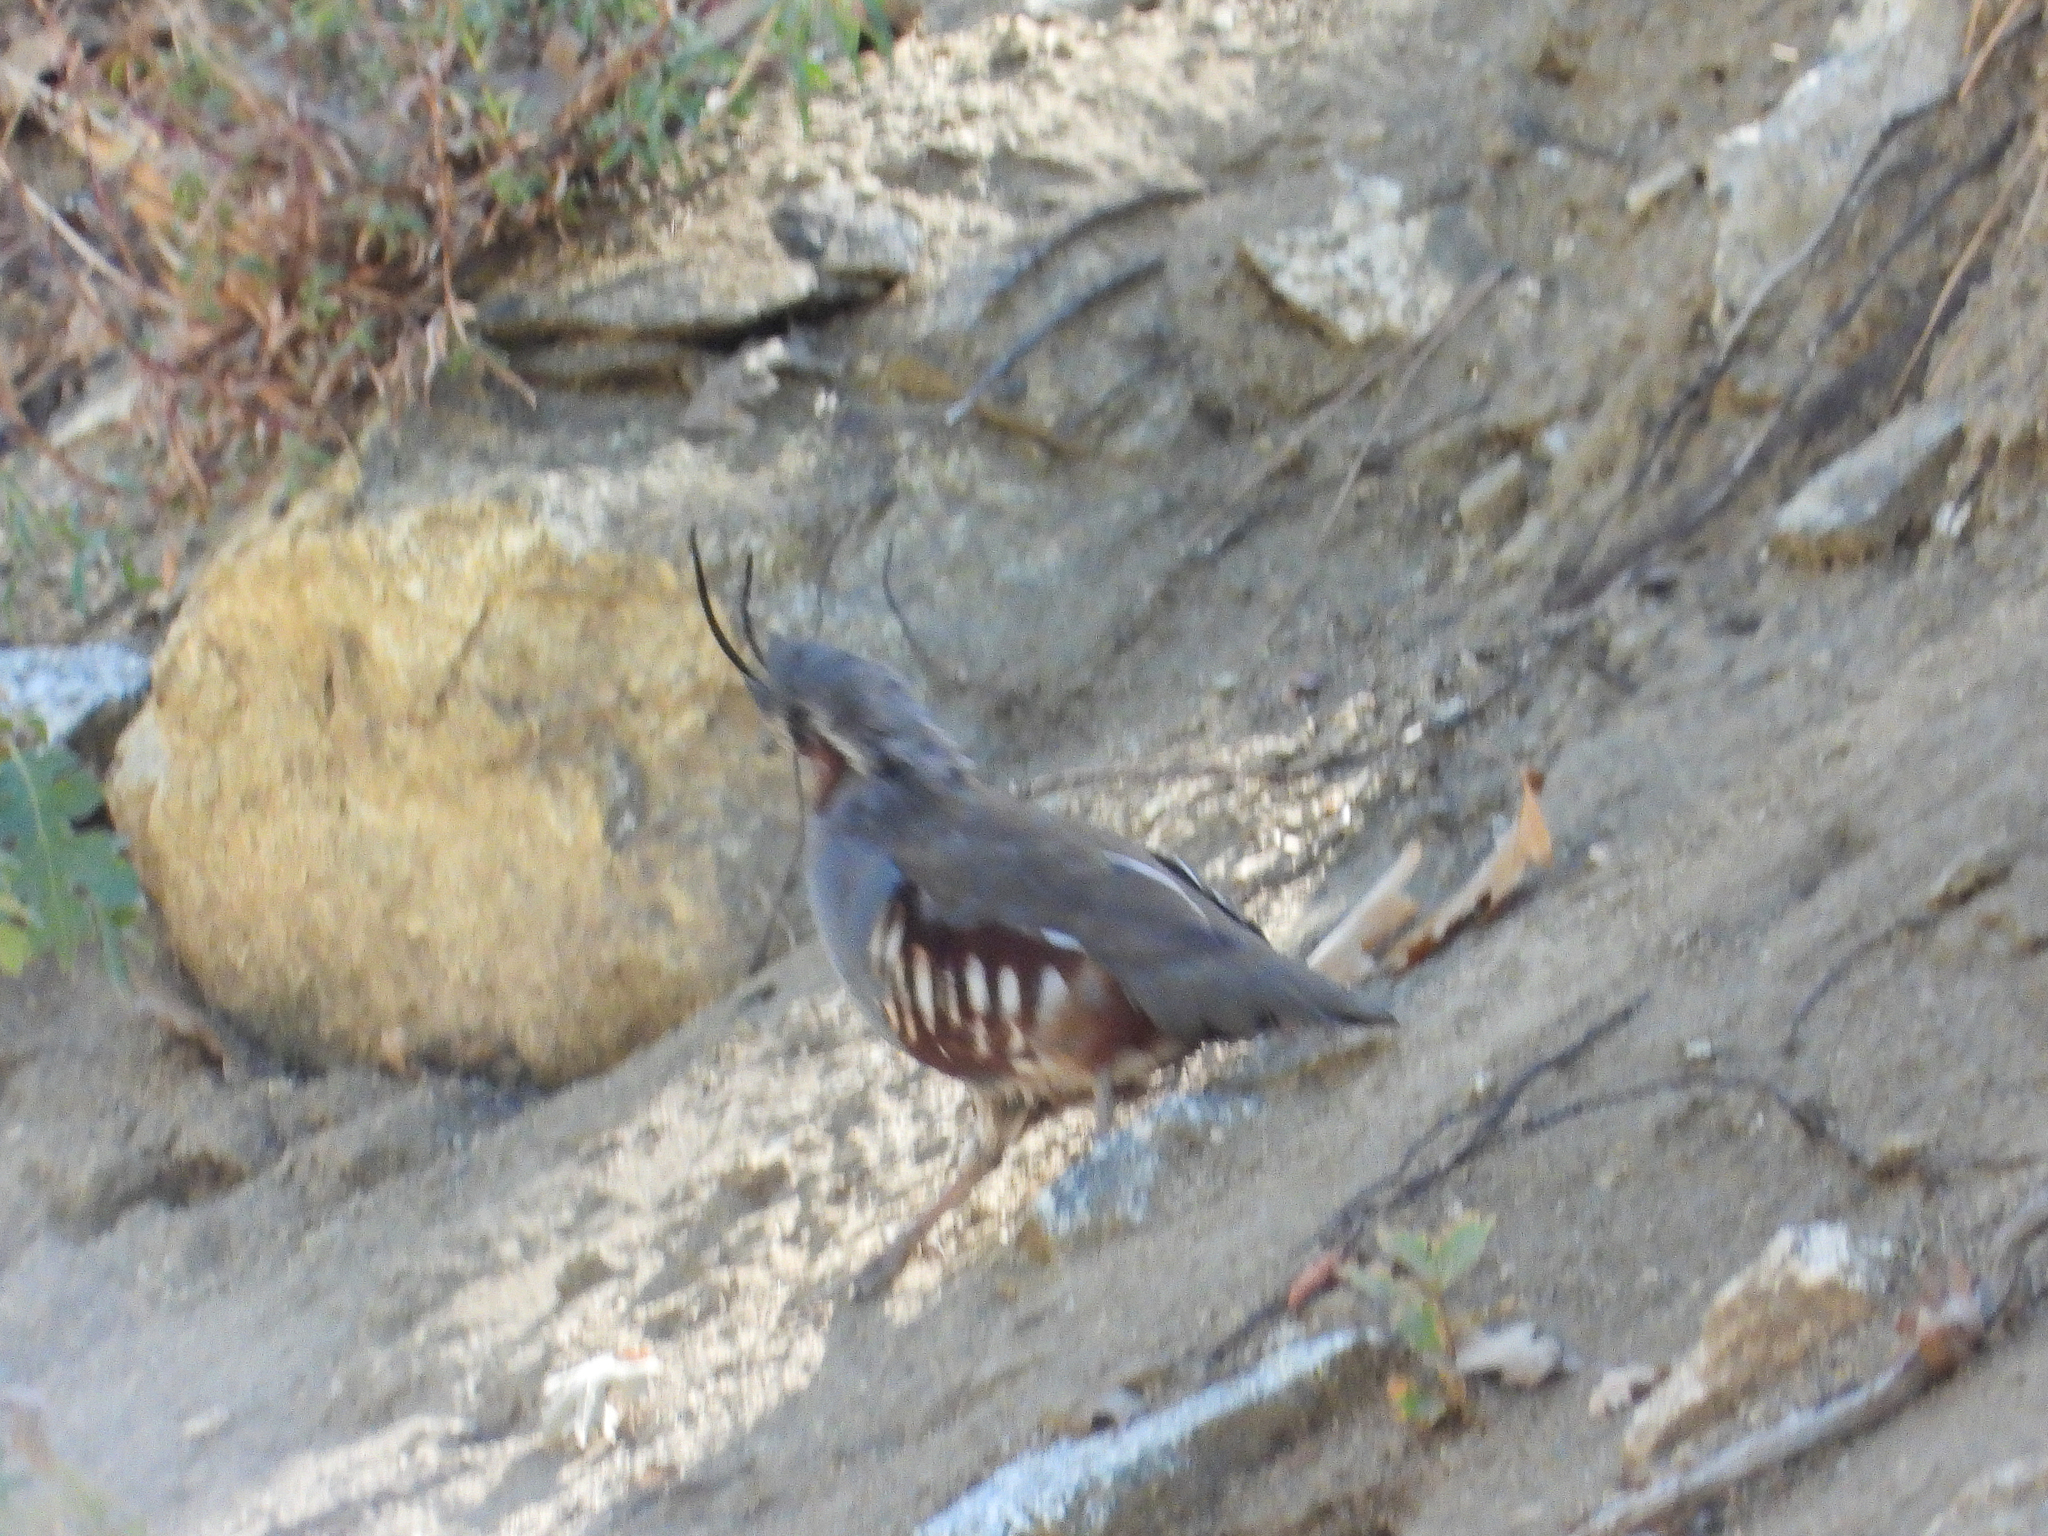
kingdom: Animalia
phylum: Chordata
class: Aves
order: Galliformes
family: Odontophoridae
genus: Oreortyx
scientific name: Oreortyx pictus
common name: Mountain quail
